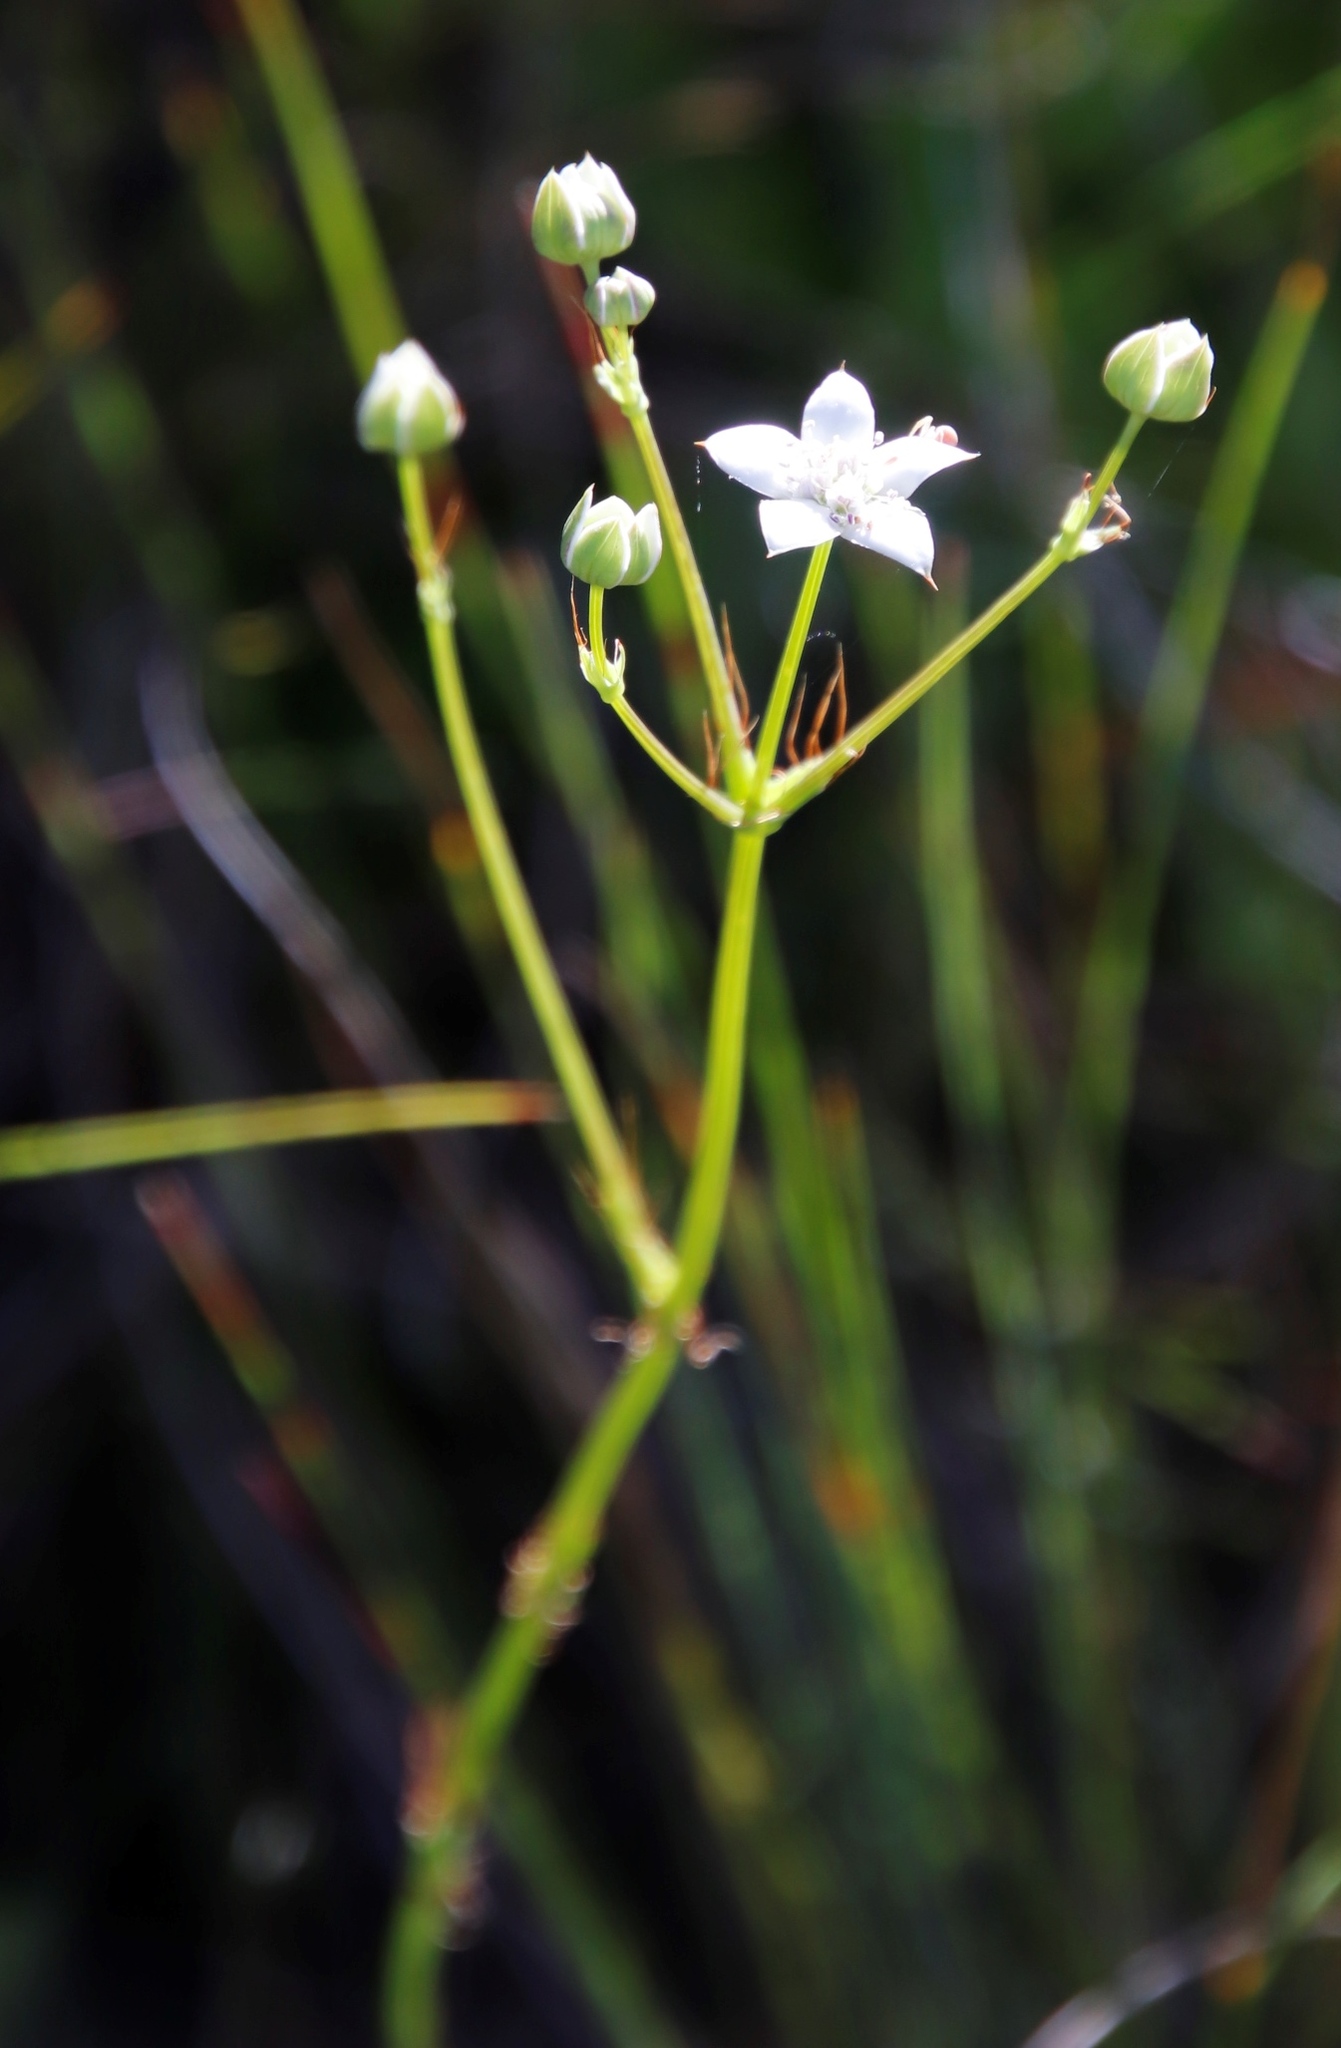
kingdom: Plantae
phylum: Tracheophyta
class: Magnoliopsida
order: Apiales
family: Apiaceae
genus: Alepidea
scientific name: Alepidea natalensis
